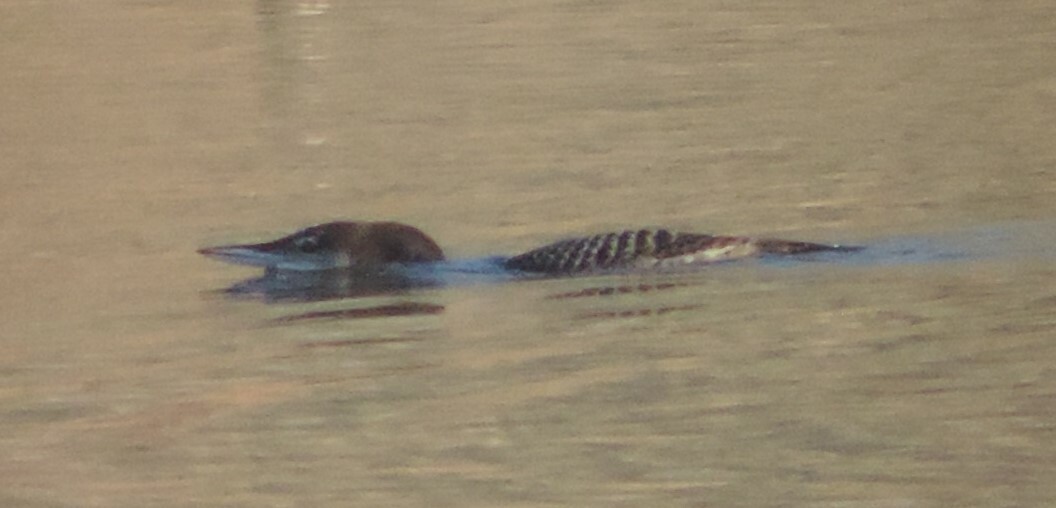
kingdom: Animalia
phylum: Chordata
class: Aves
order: Gaviiformes
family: Gaviidae
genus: Gavia
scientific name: Gavia immer
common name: Common loon
